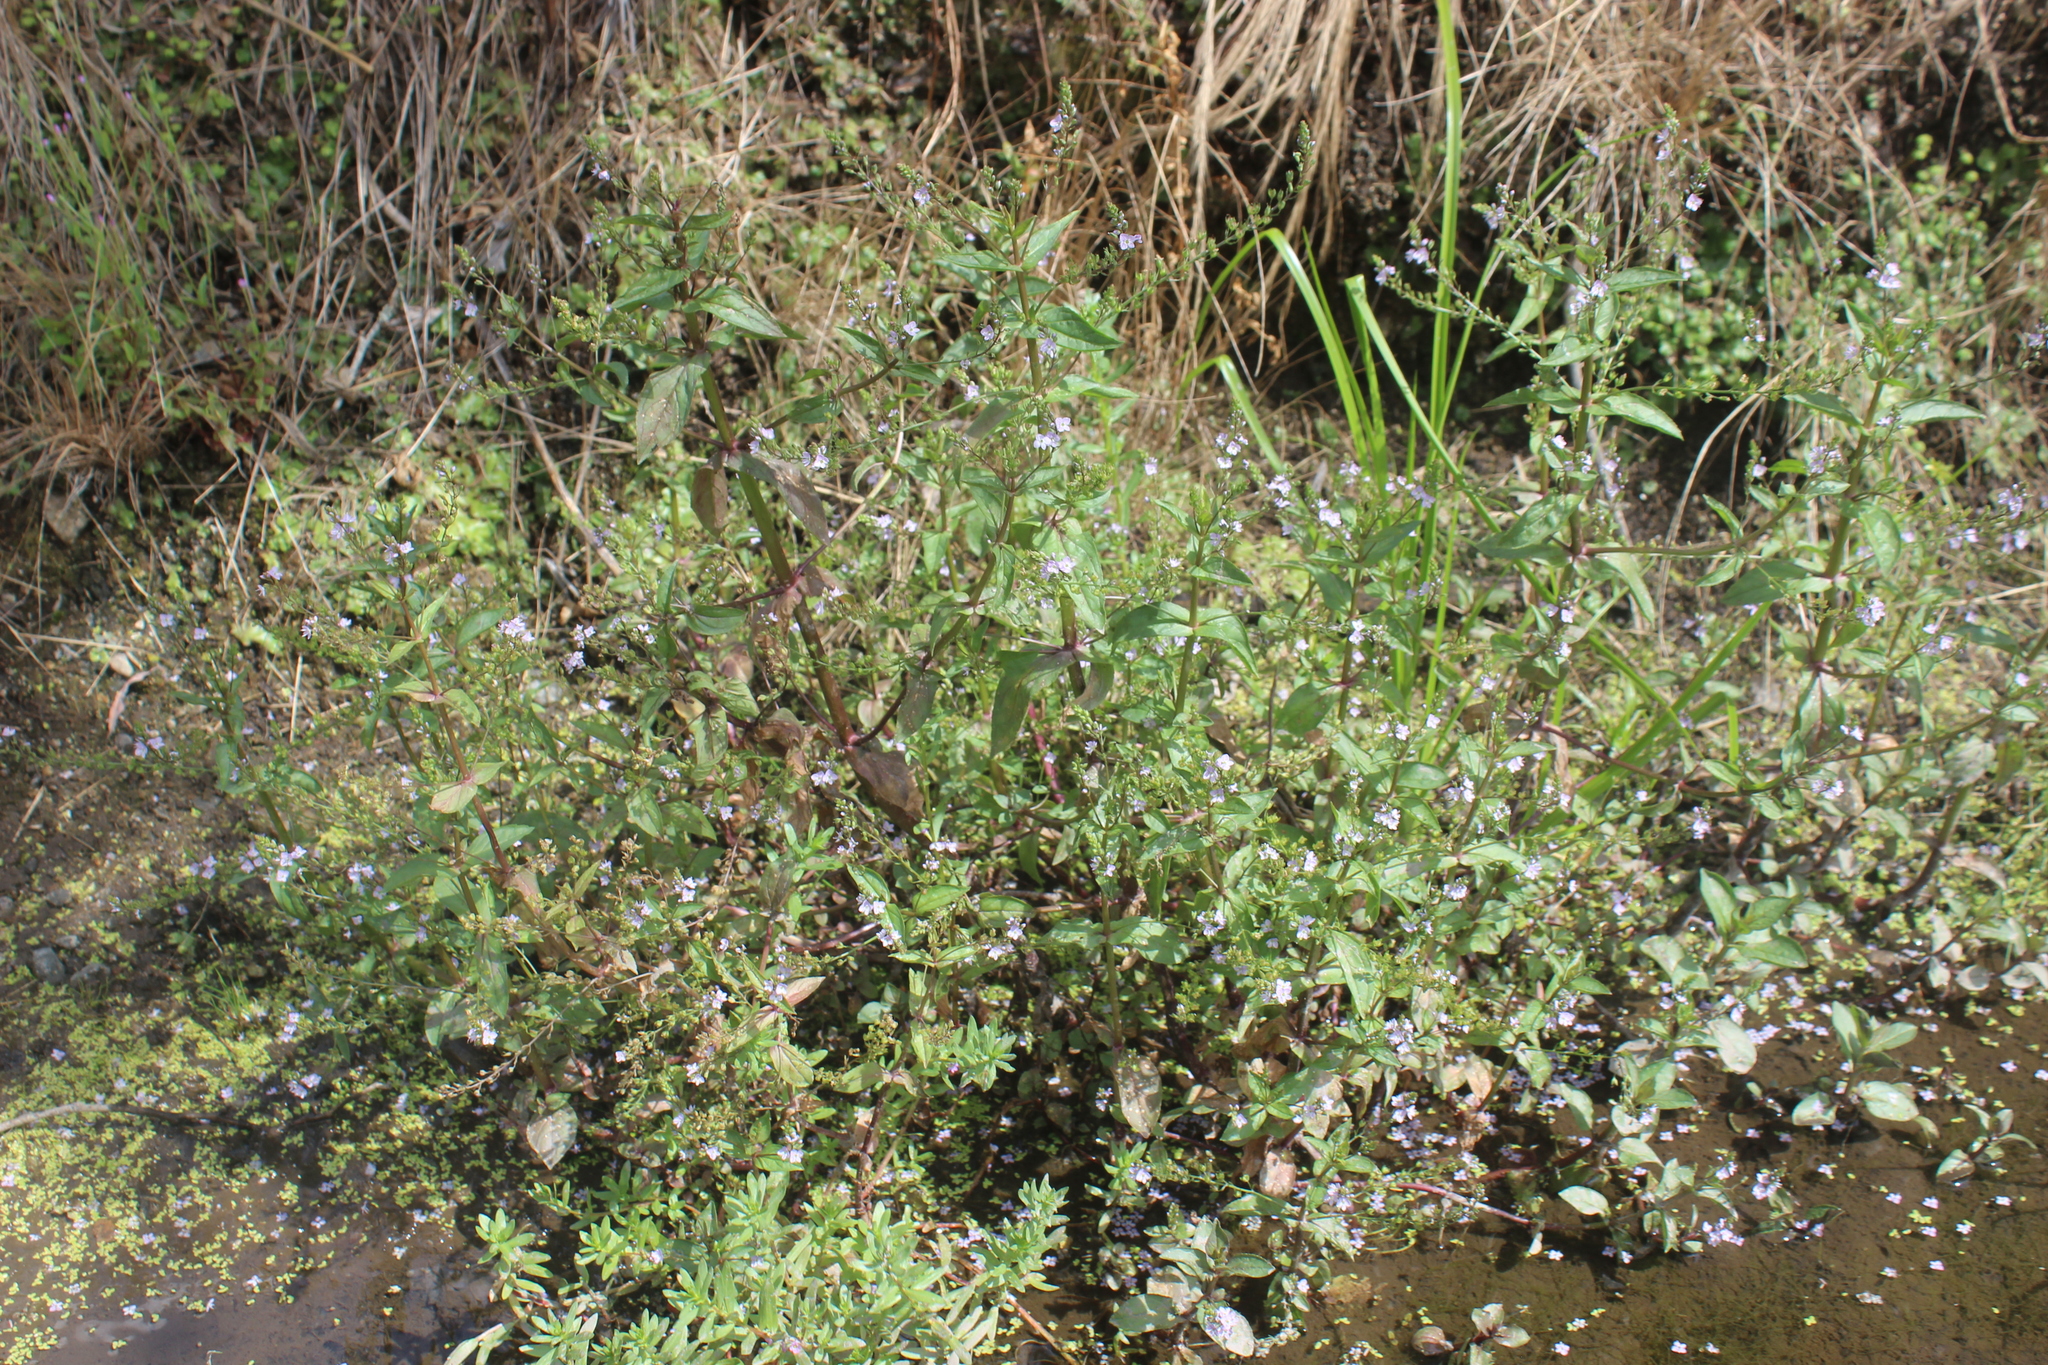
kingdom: Plantae
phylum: Tracheophyta
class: Magnoliopsida
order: Lamiales
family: Plantaginaceae
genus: Veronica
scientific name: Veronica anagallis-aquatica
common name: Water speedwell
